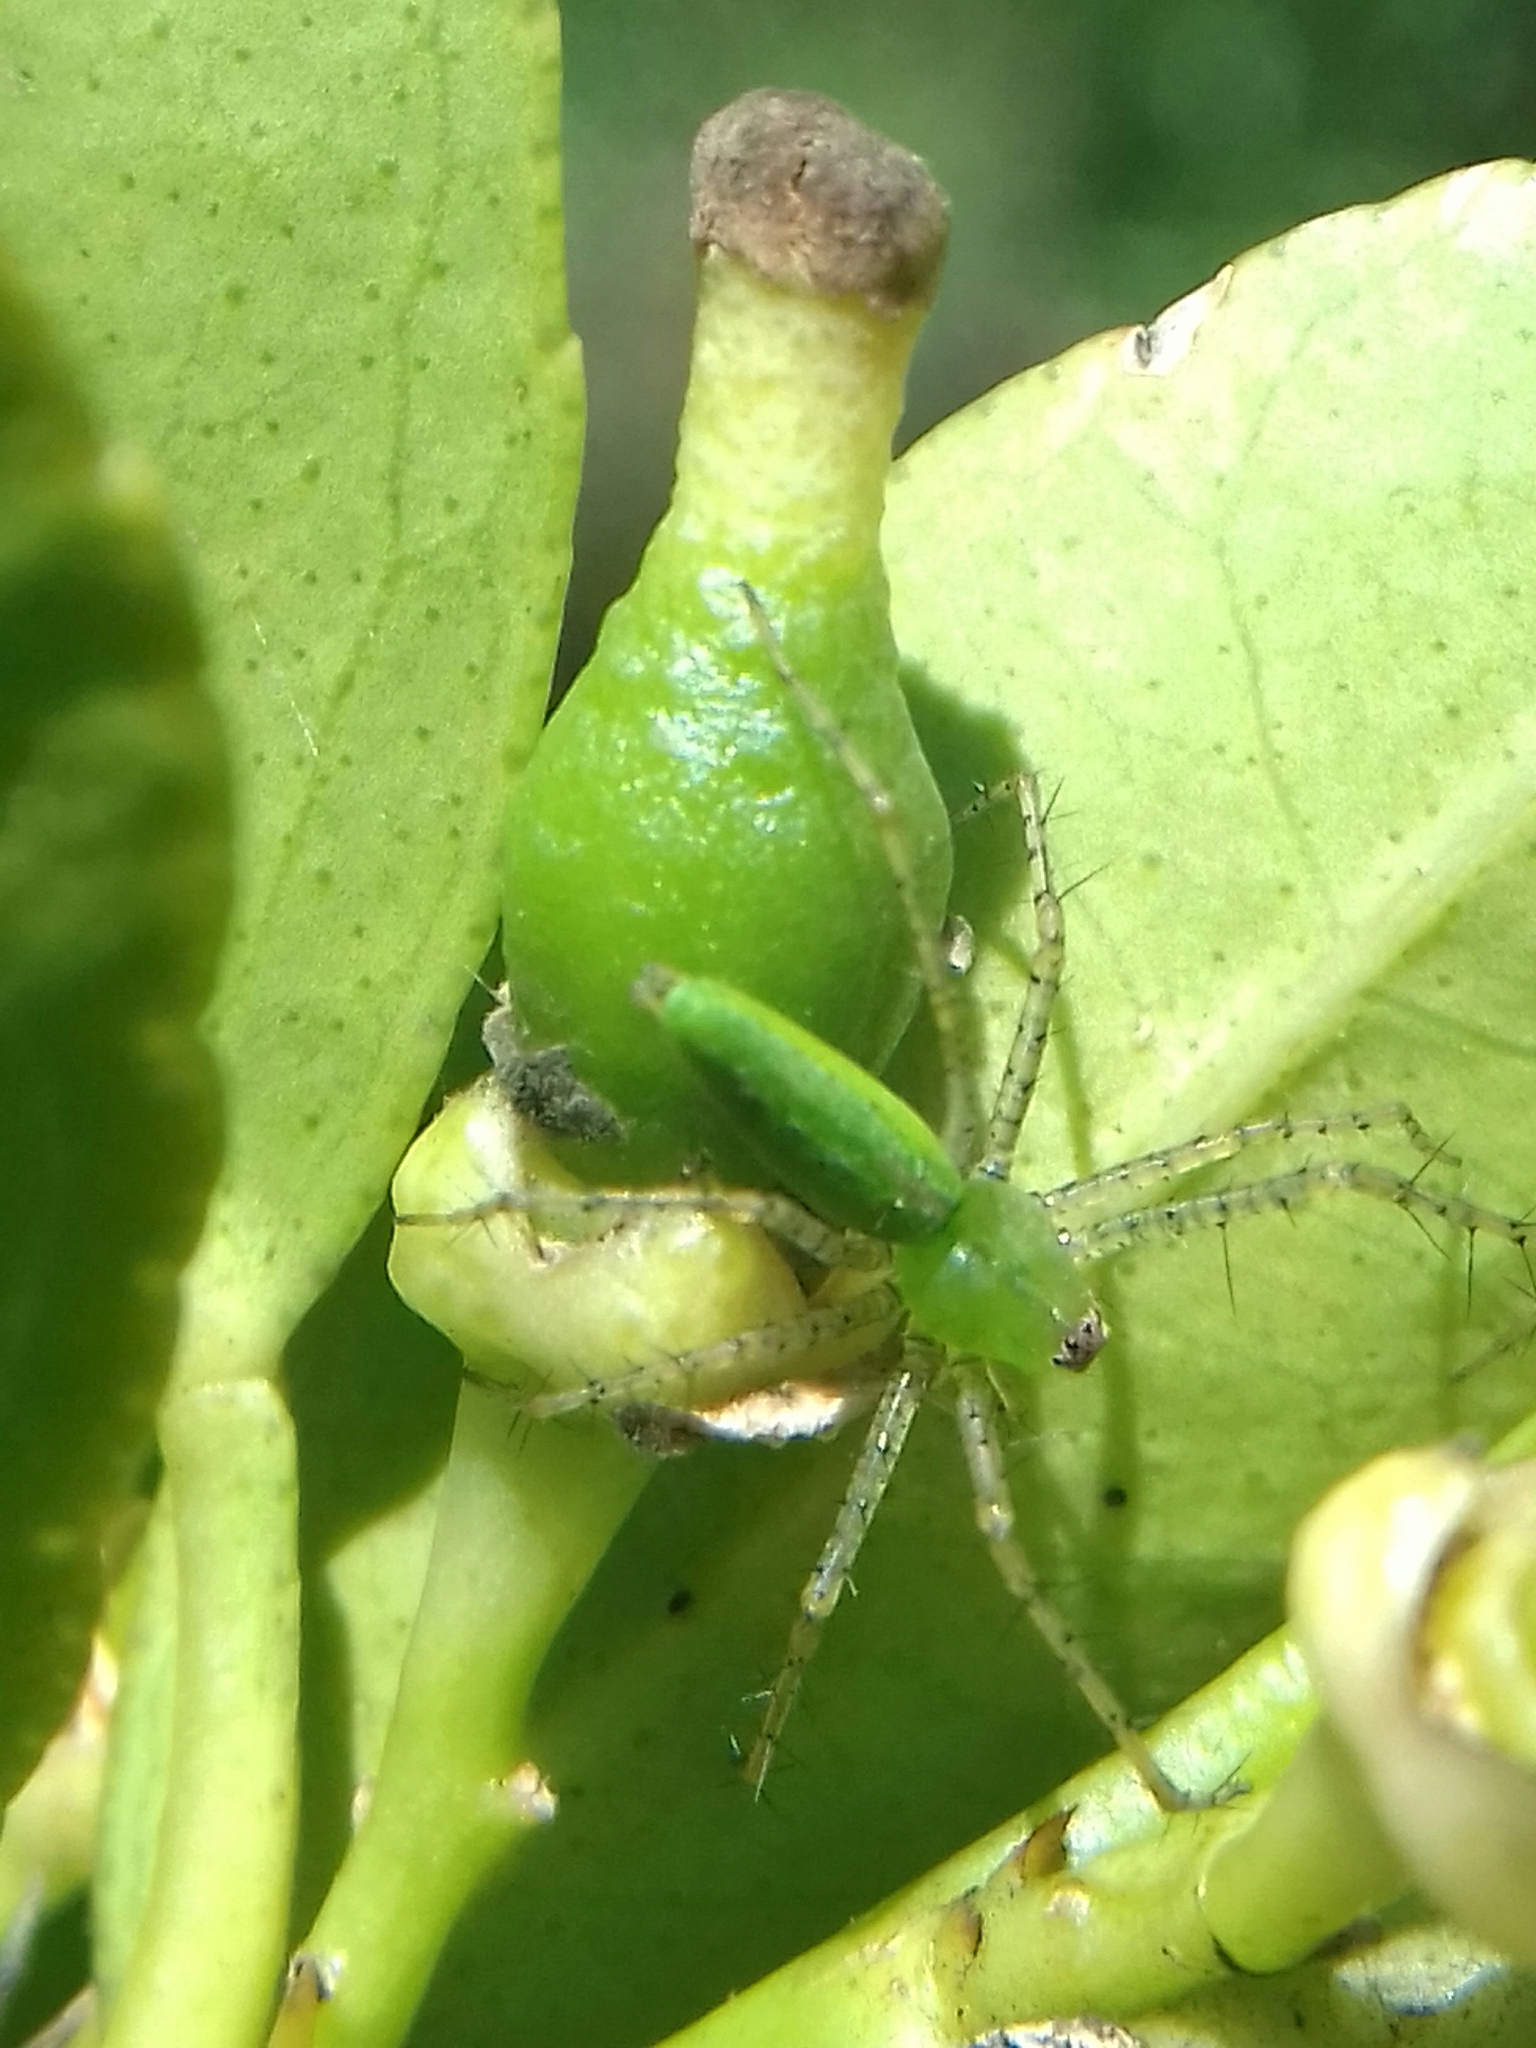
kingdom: Animalia
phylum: Arthropoda
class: Arachnida
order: Araneae
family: Oxyopidae
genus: Peucetia
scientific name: Peucetia viridans
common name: Lynx spiders
